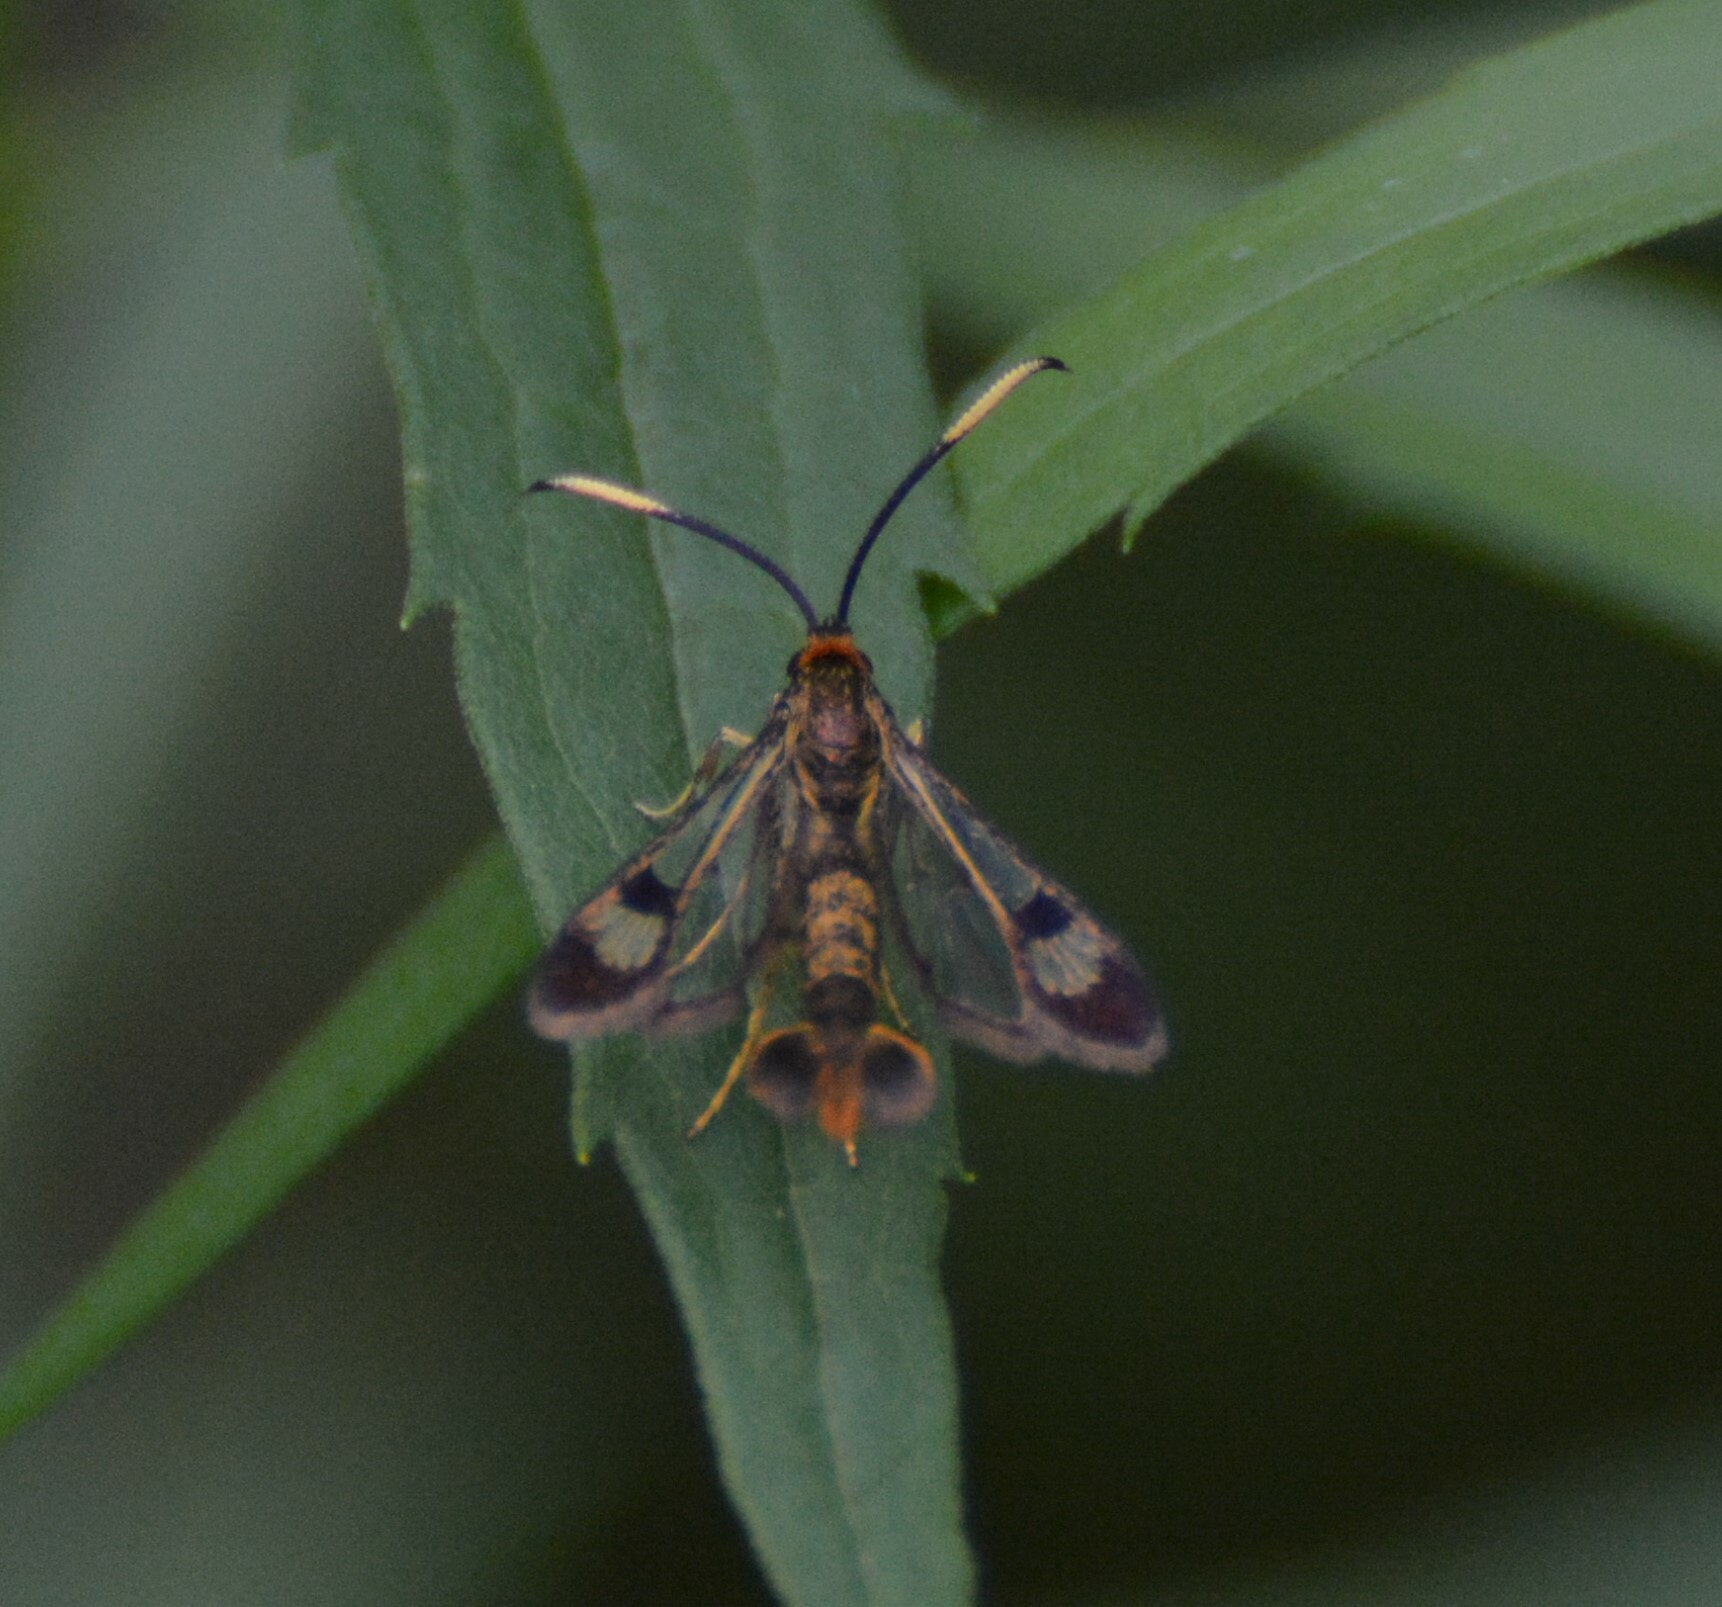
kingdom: Animalia
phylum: Arthropoda
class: Insecta
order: Lepidoptera
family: Sesiidae
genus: Carmenta
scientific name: Carmenta corni
